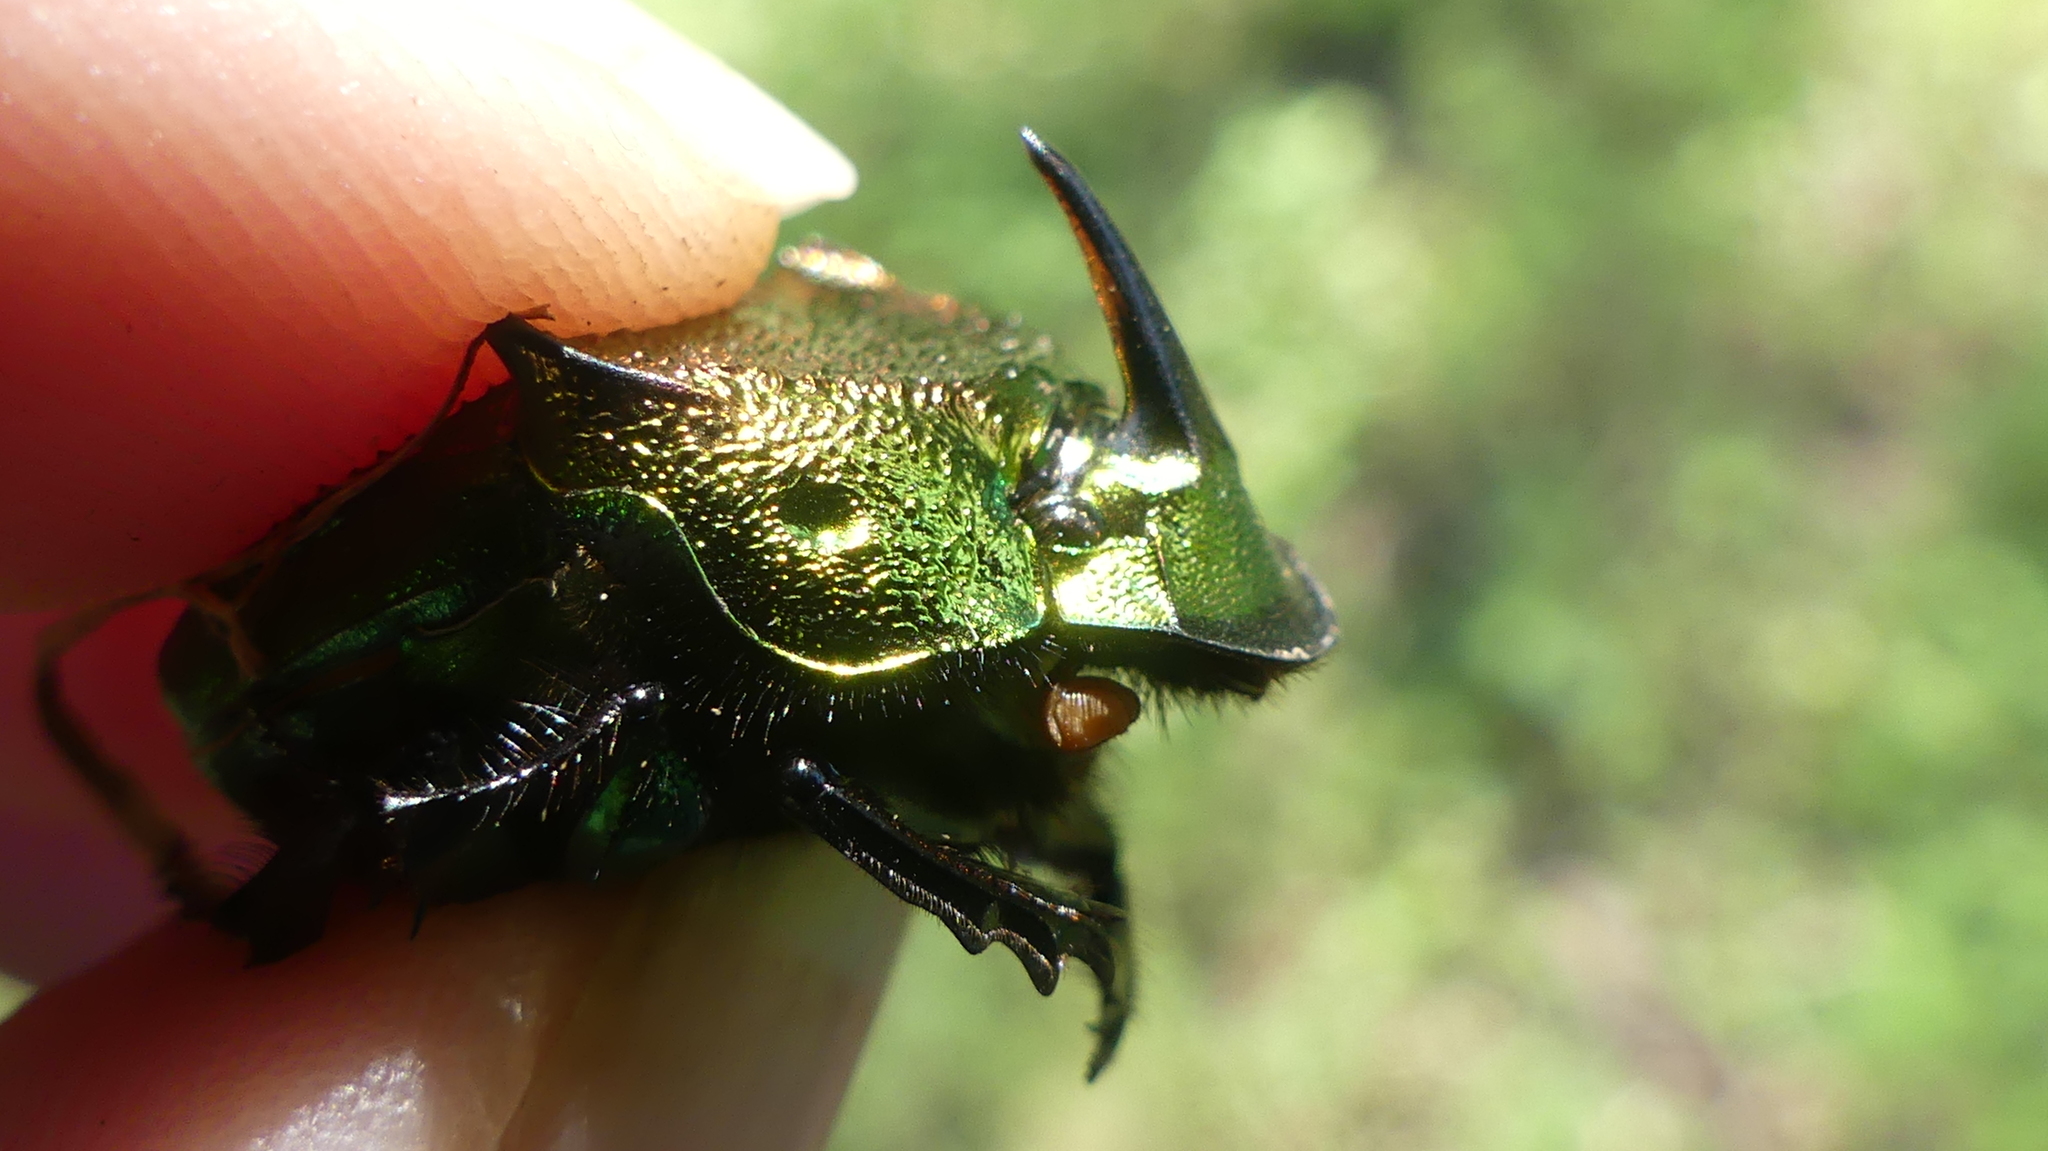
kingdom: Animalia
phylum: Arthropoda
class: Insecta
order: Coleoptera
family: Scarabaeidae
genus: Phanaeus
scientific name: Phanaeus vindex
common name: Rainbow scarab
